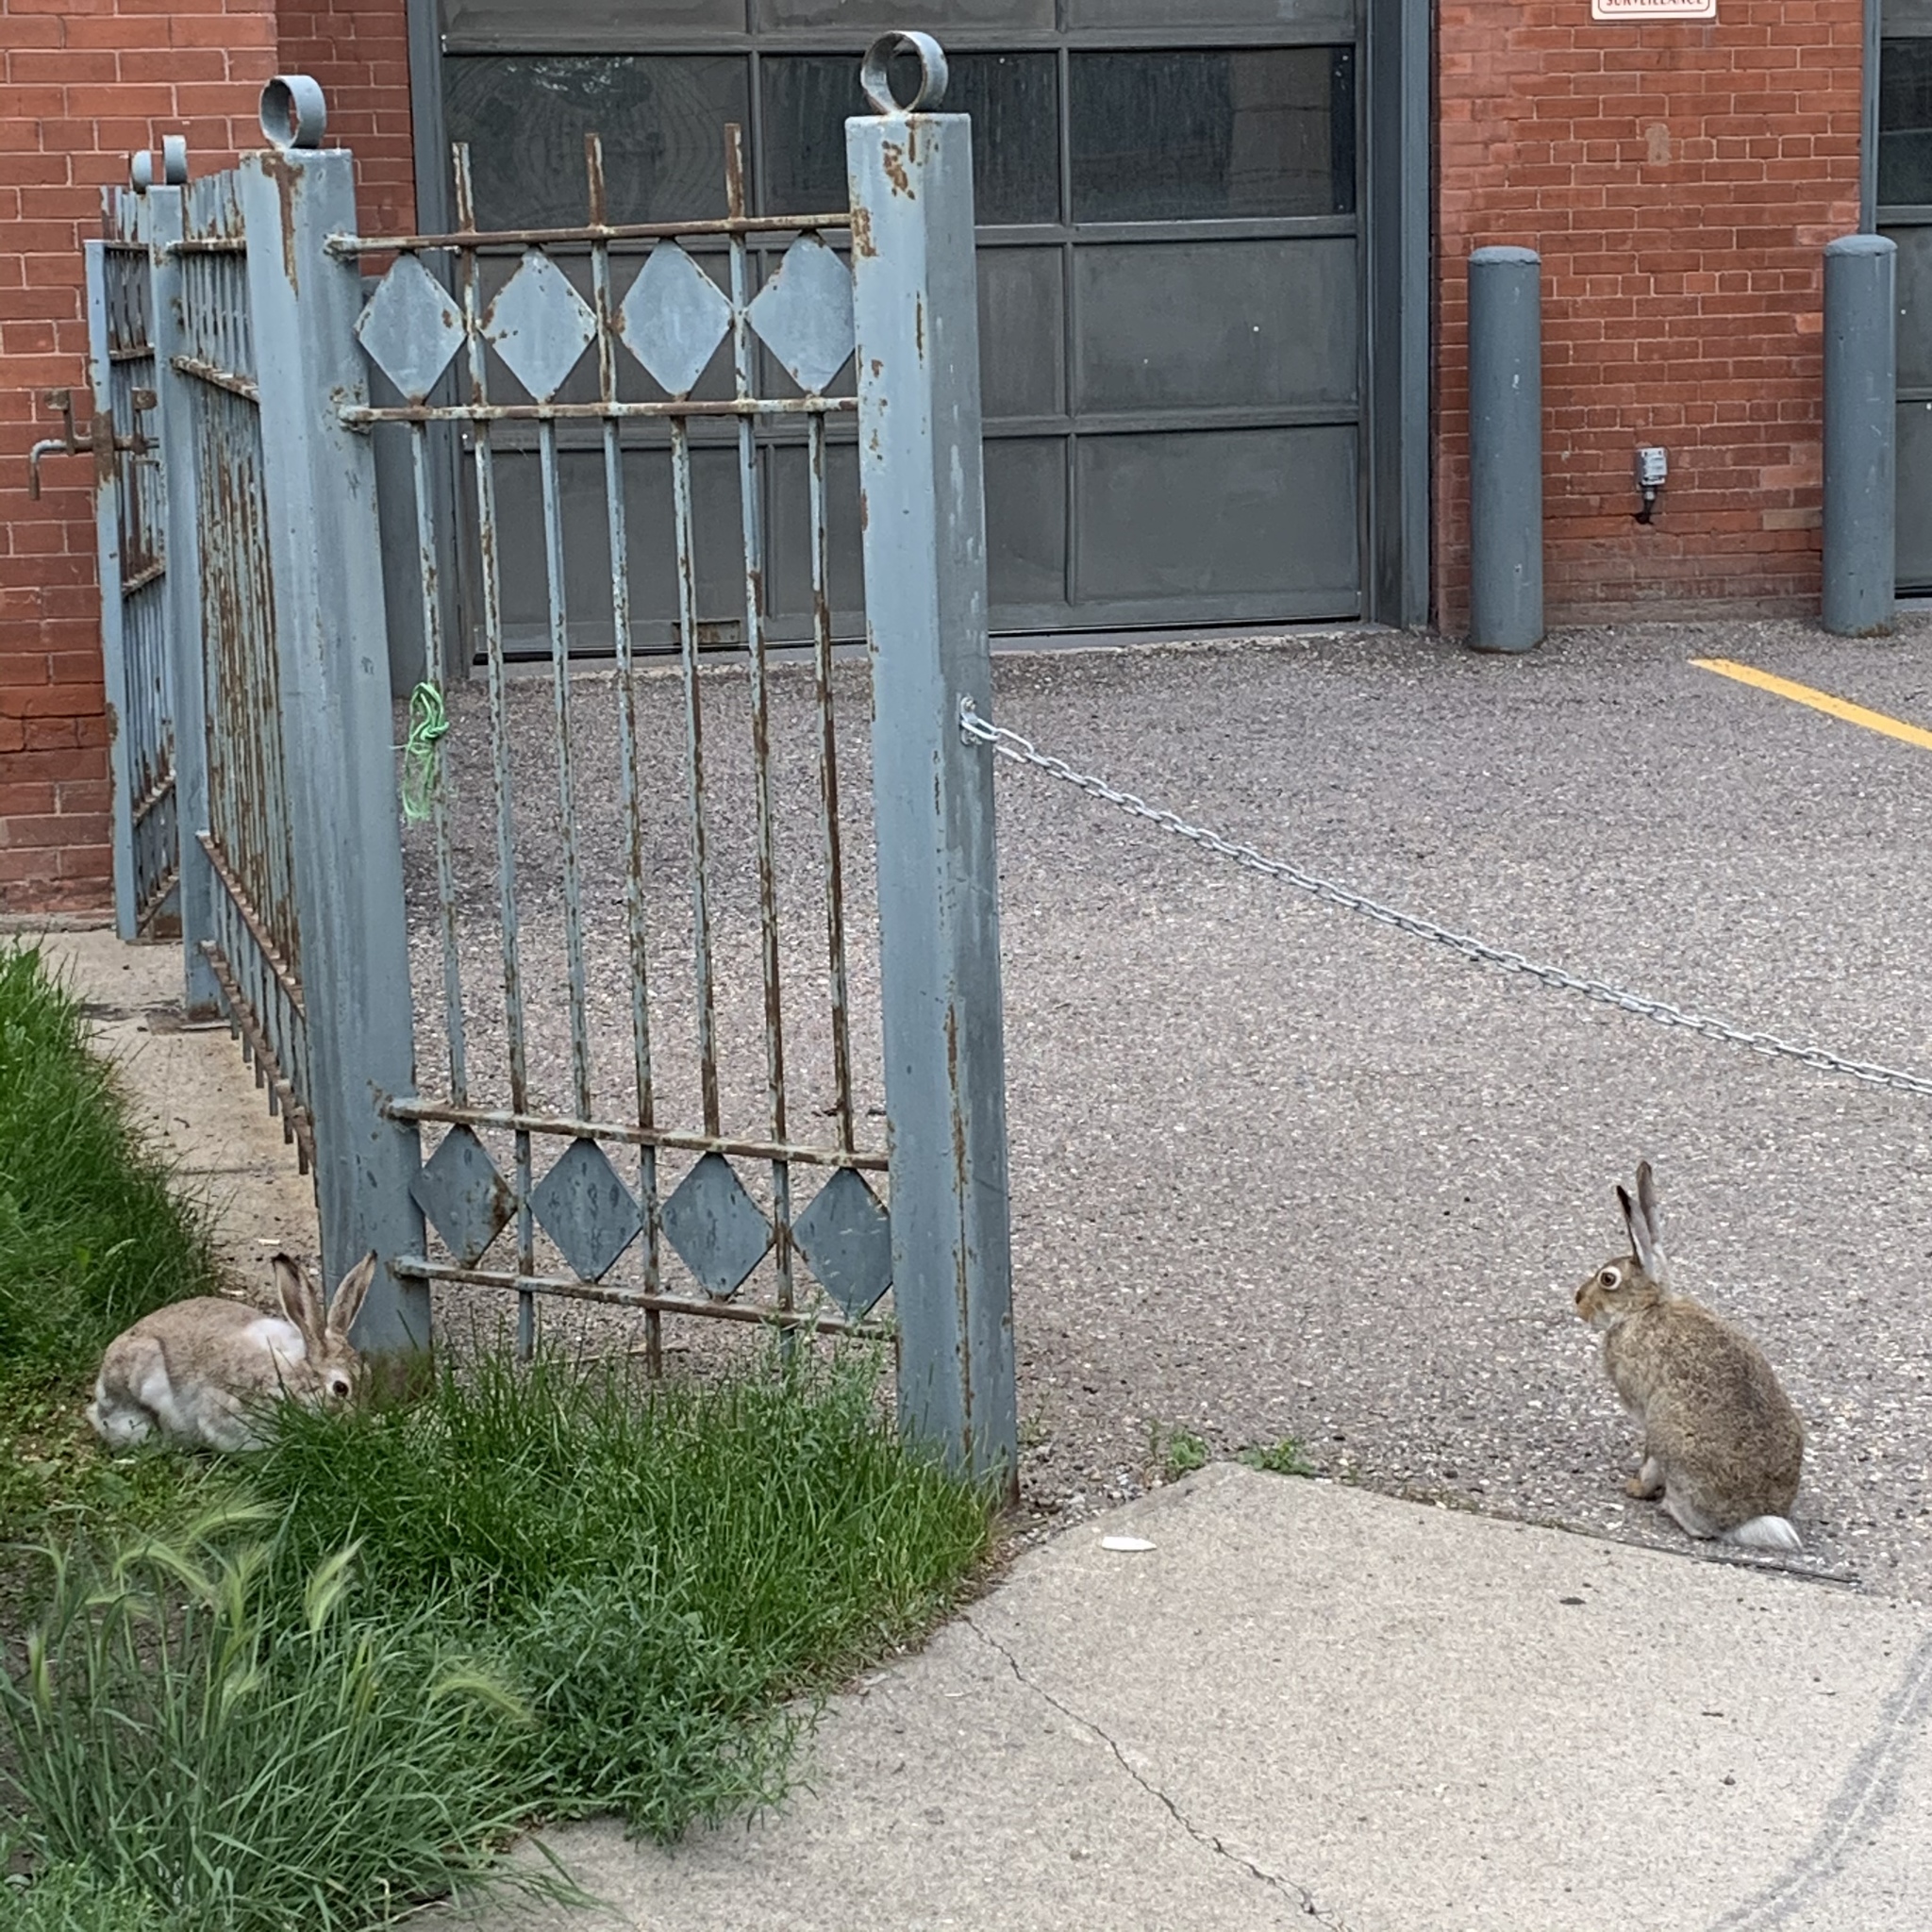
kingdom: Animalia
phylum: Chordata
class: Mammalia
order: Lagomorpha
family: Leporidae
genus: Lepus
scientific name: Lepus townsendii
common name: White-tailed jackrabbit
